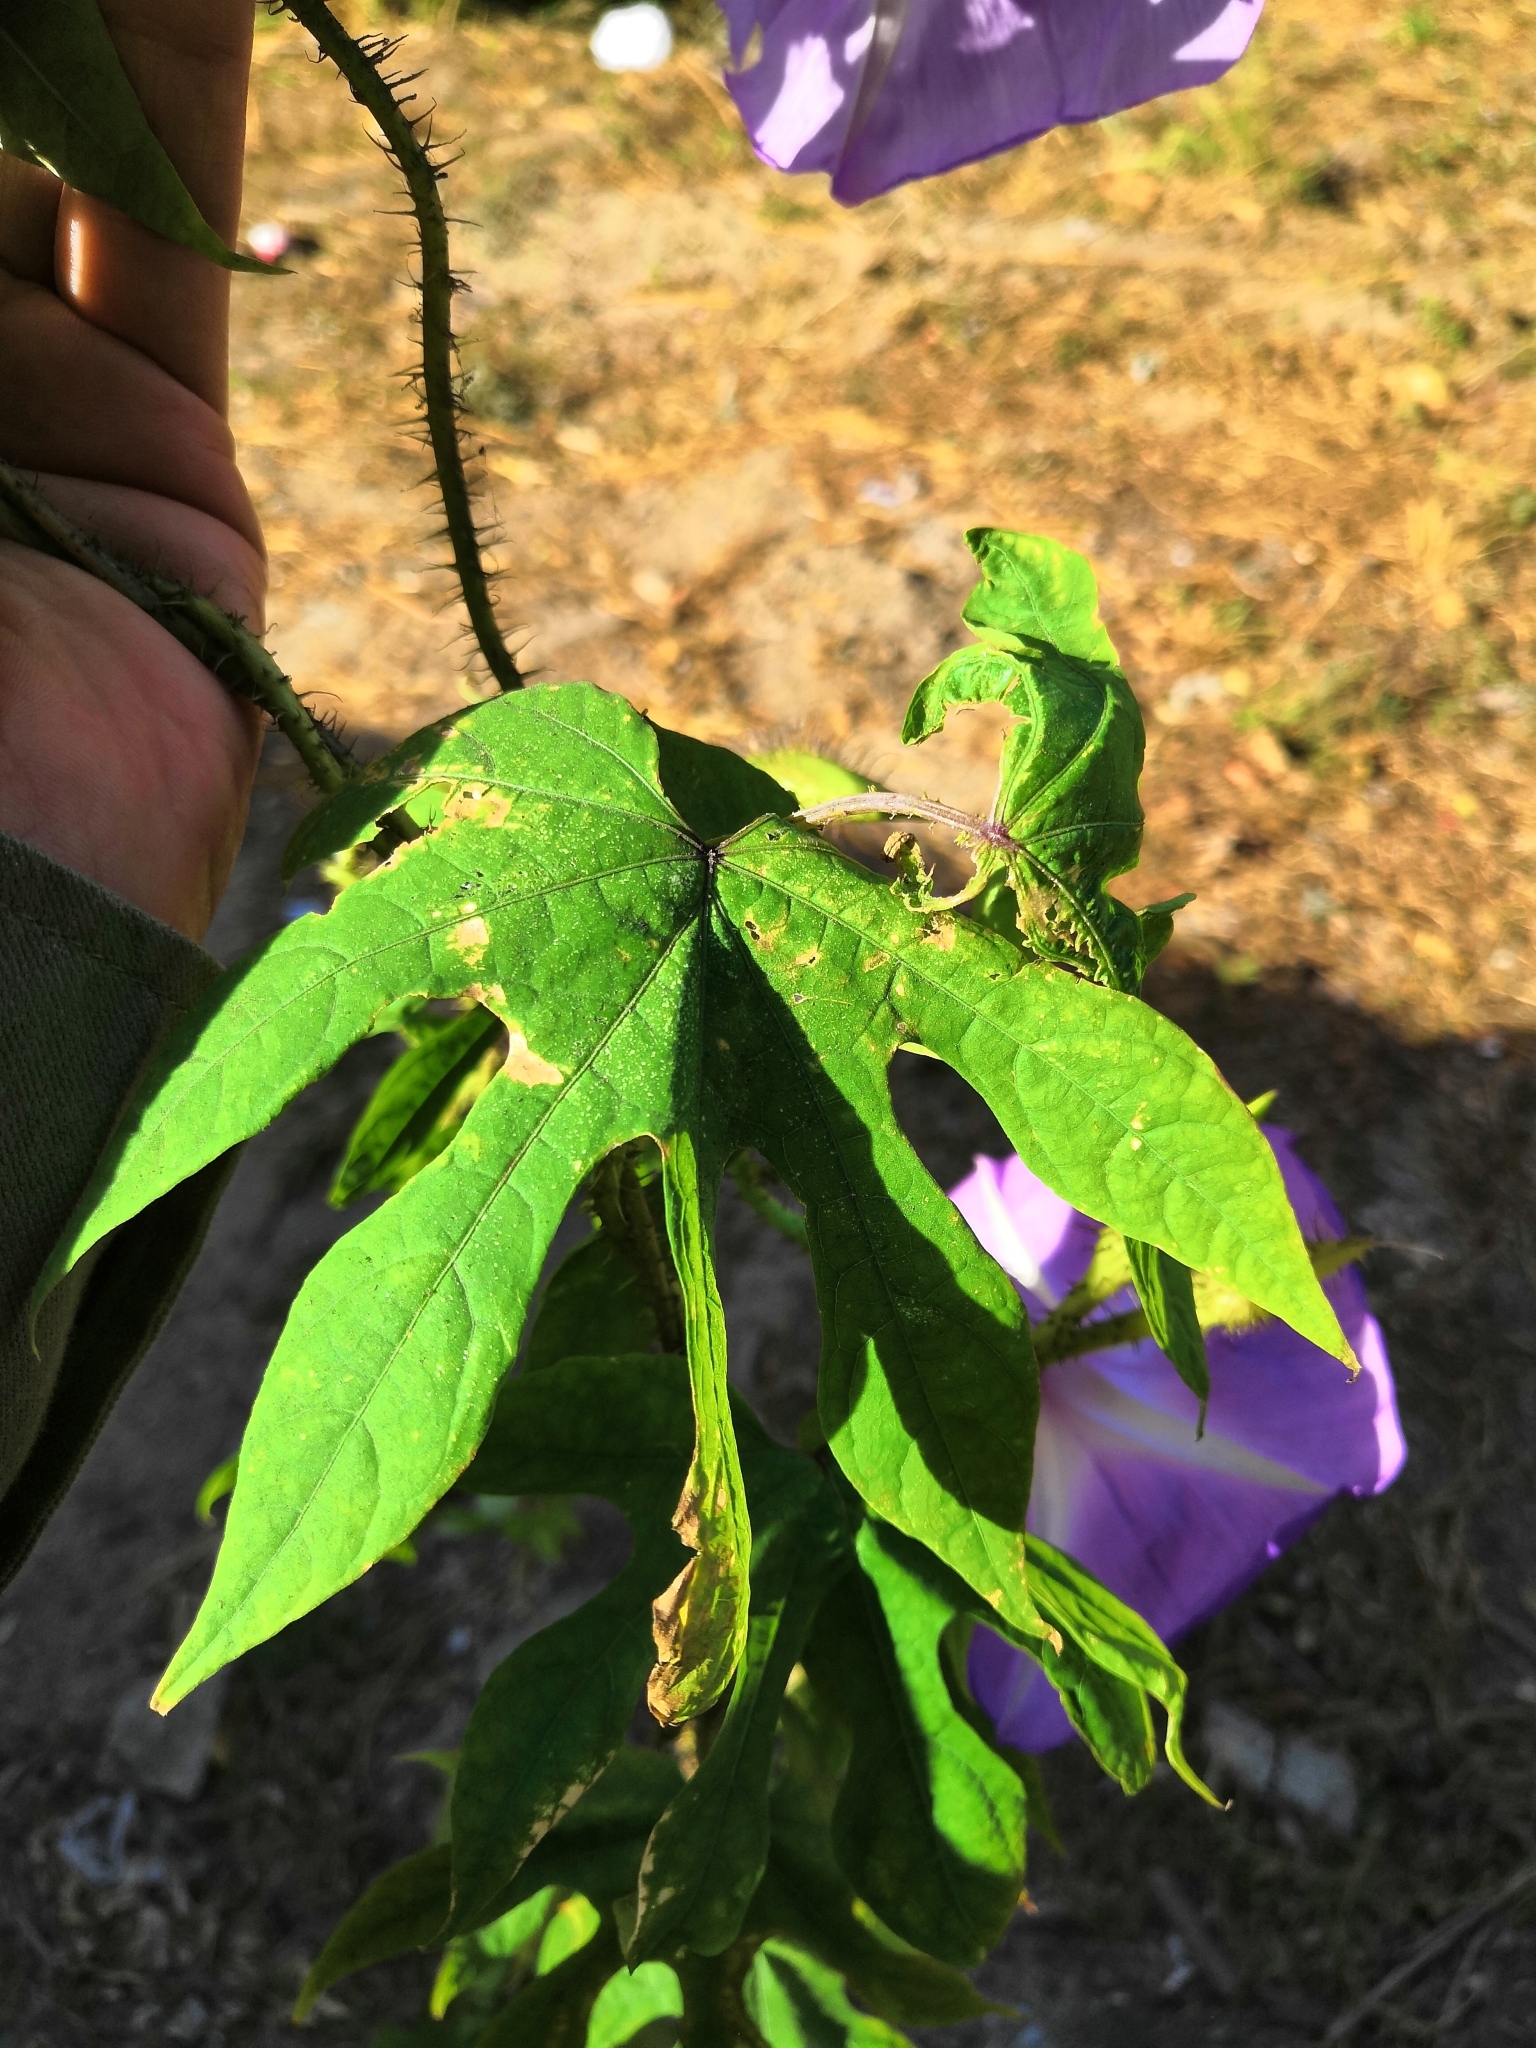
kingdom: Plantae
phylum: Tracheophyta
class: Magnoliopsida
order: Solanales
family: Convolvulaceae
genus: Ipomoea
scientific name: Ipomoea setosa
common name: Brazilian morning-glory
